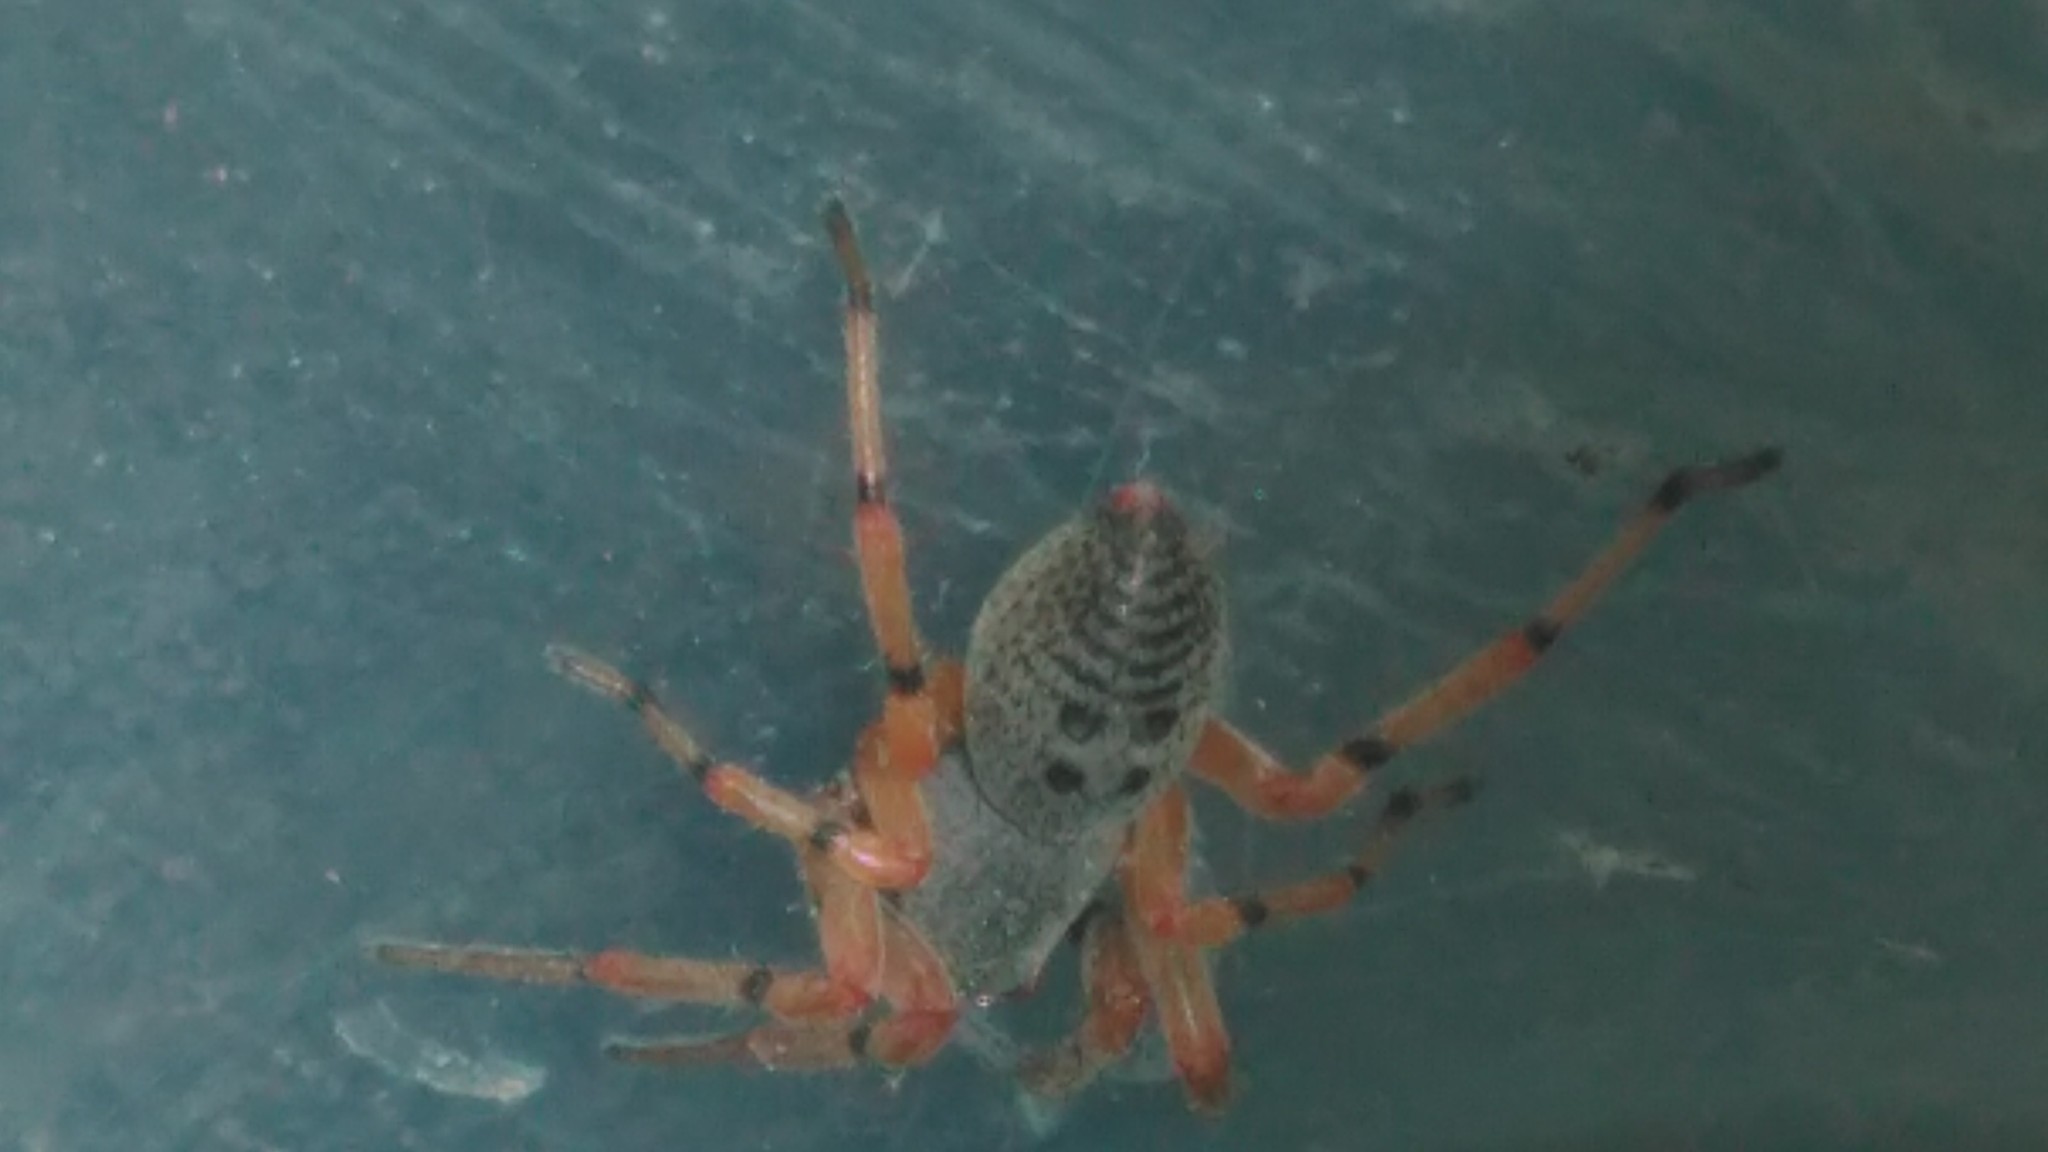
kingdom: Animalia
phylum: Arthropoda
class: Arachnida
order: Araneae
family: Trachelidae
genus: Trachelopachys
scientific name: Trachelopachys
